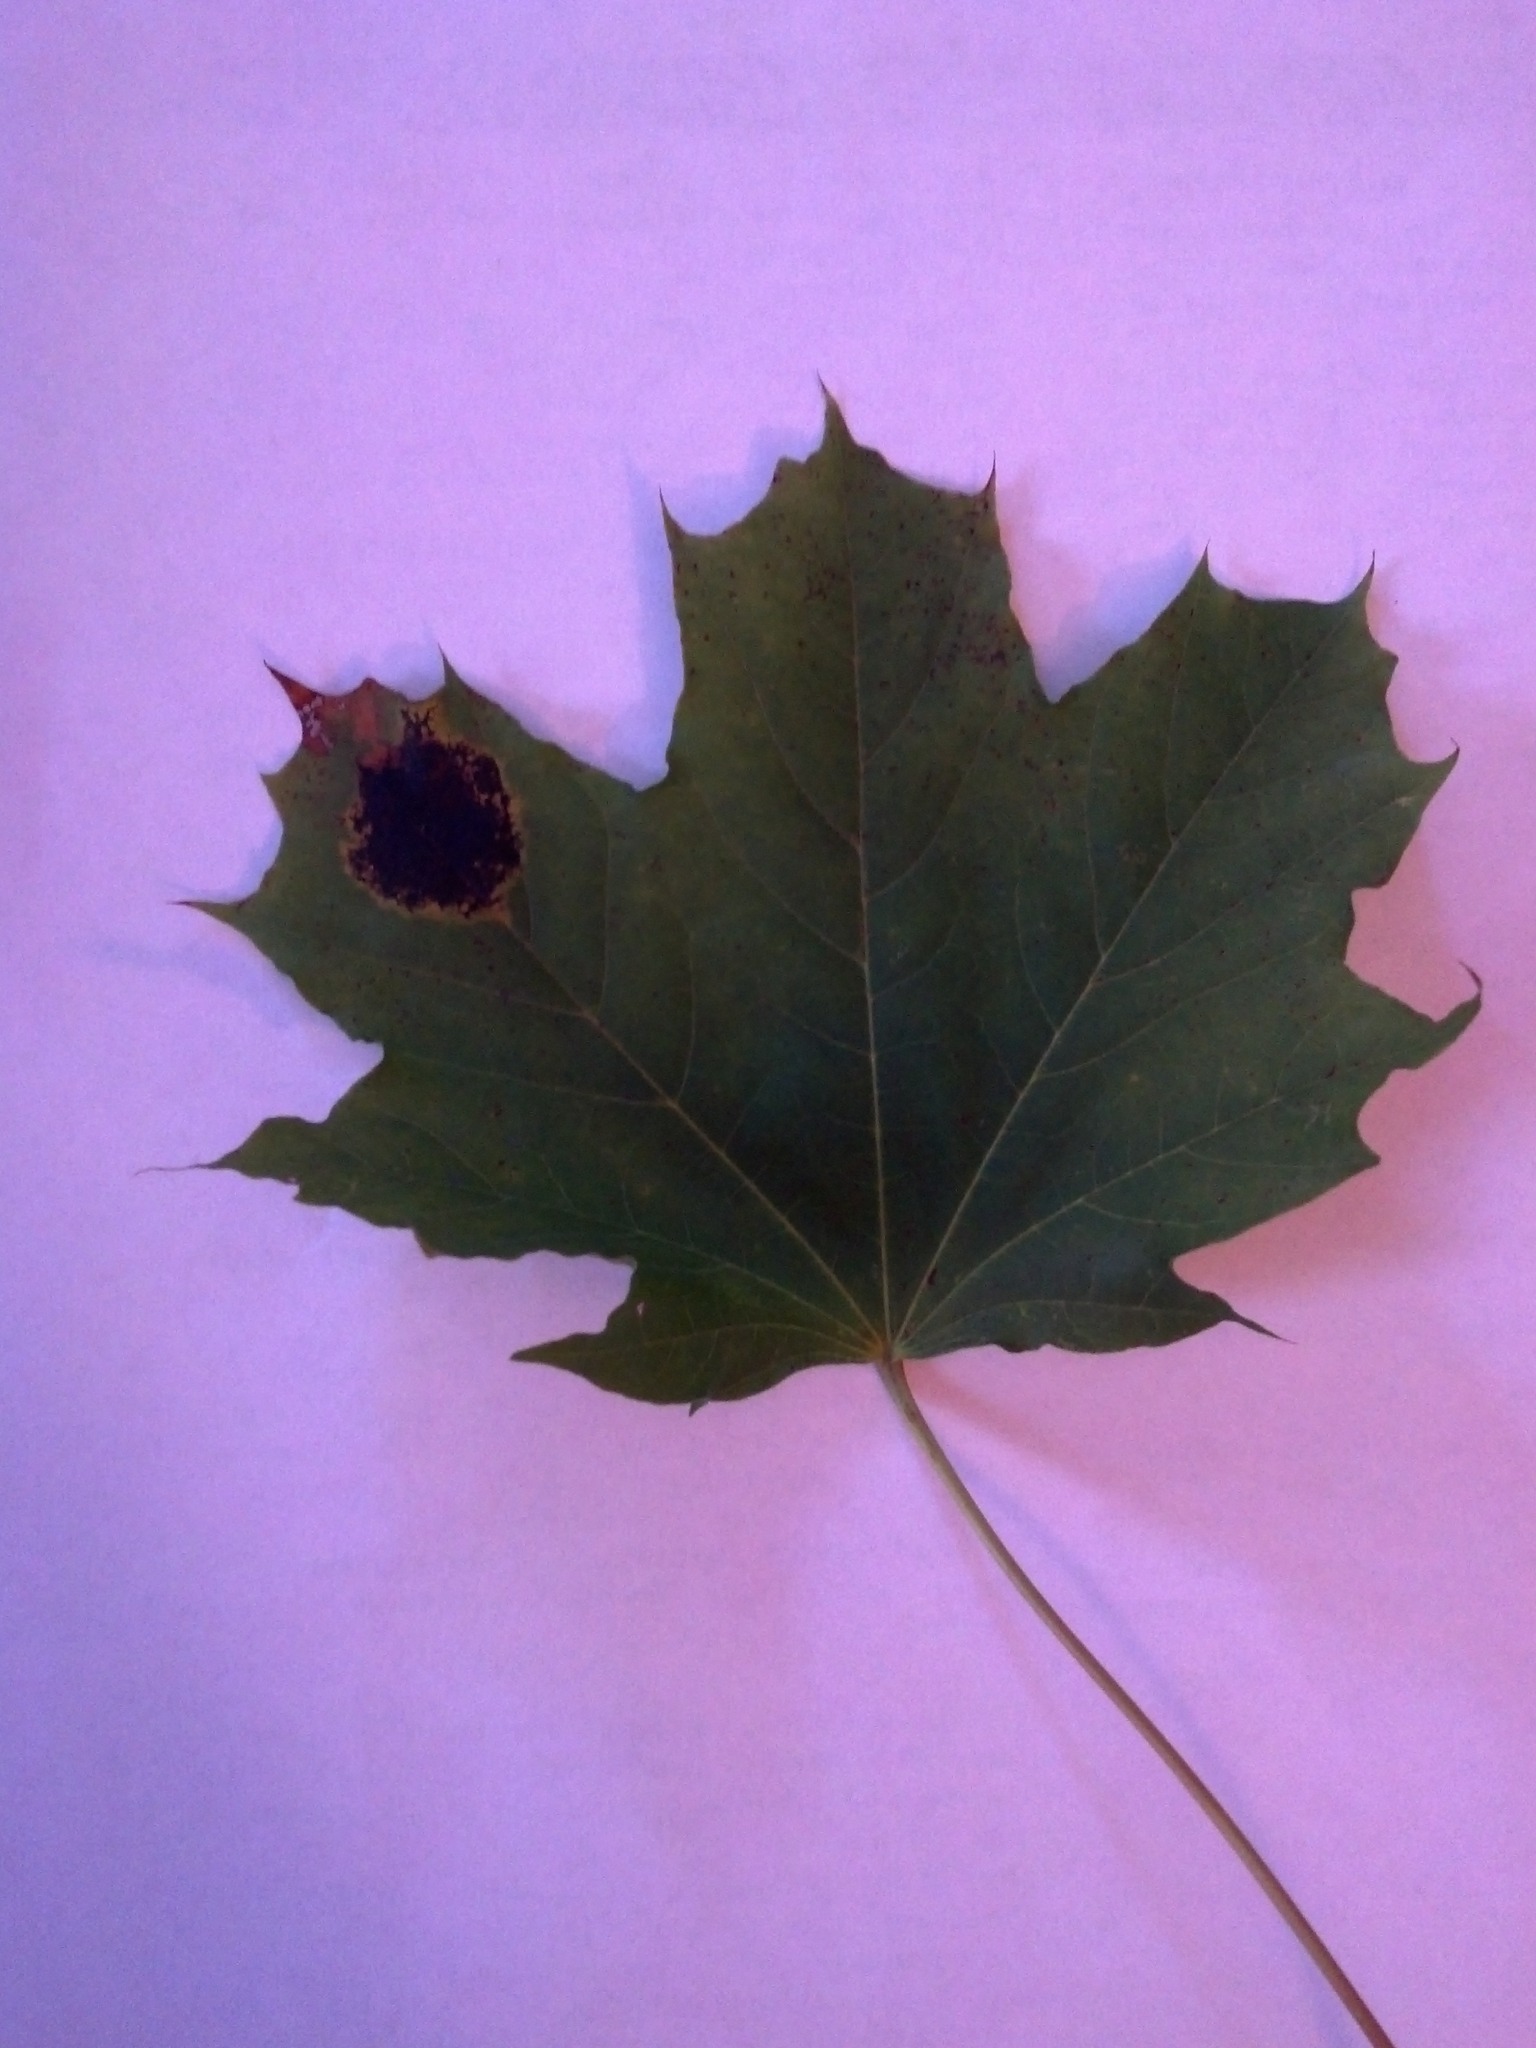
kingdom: Fungi
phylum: Ascomycota
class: Leotiomycetes
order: Rhytismatales
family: Rhytismataceae
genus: Rhytisma
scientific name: Rhytisma acerinum
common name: European tar spot
